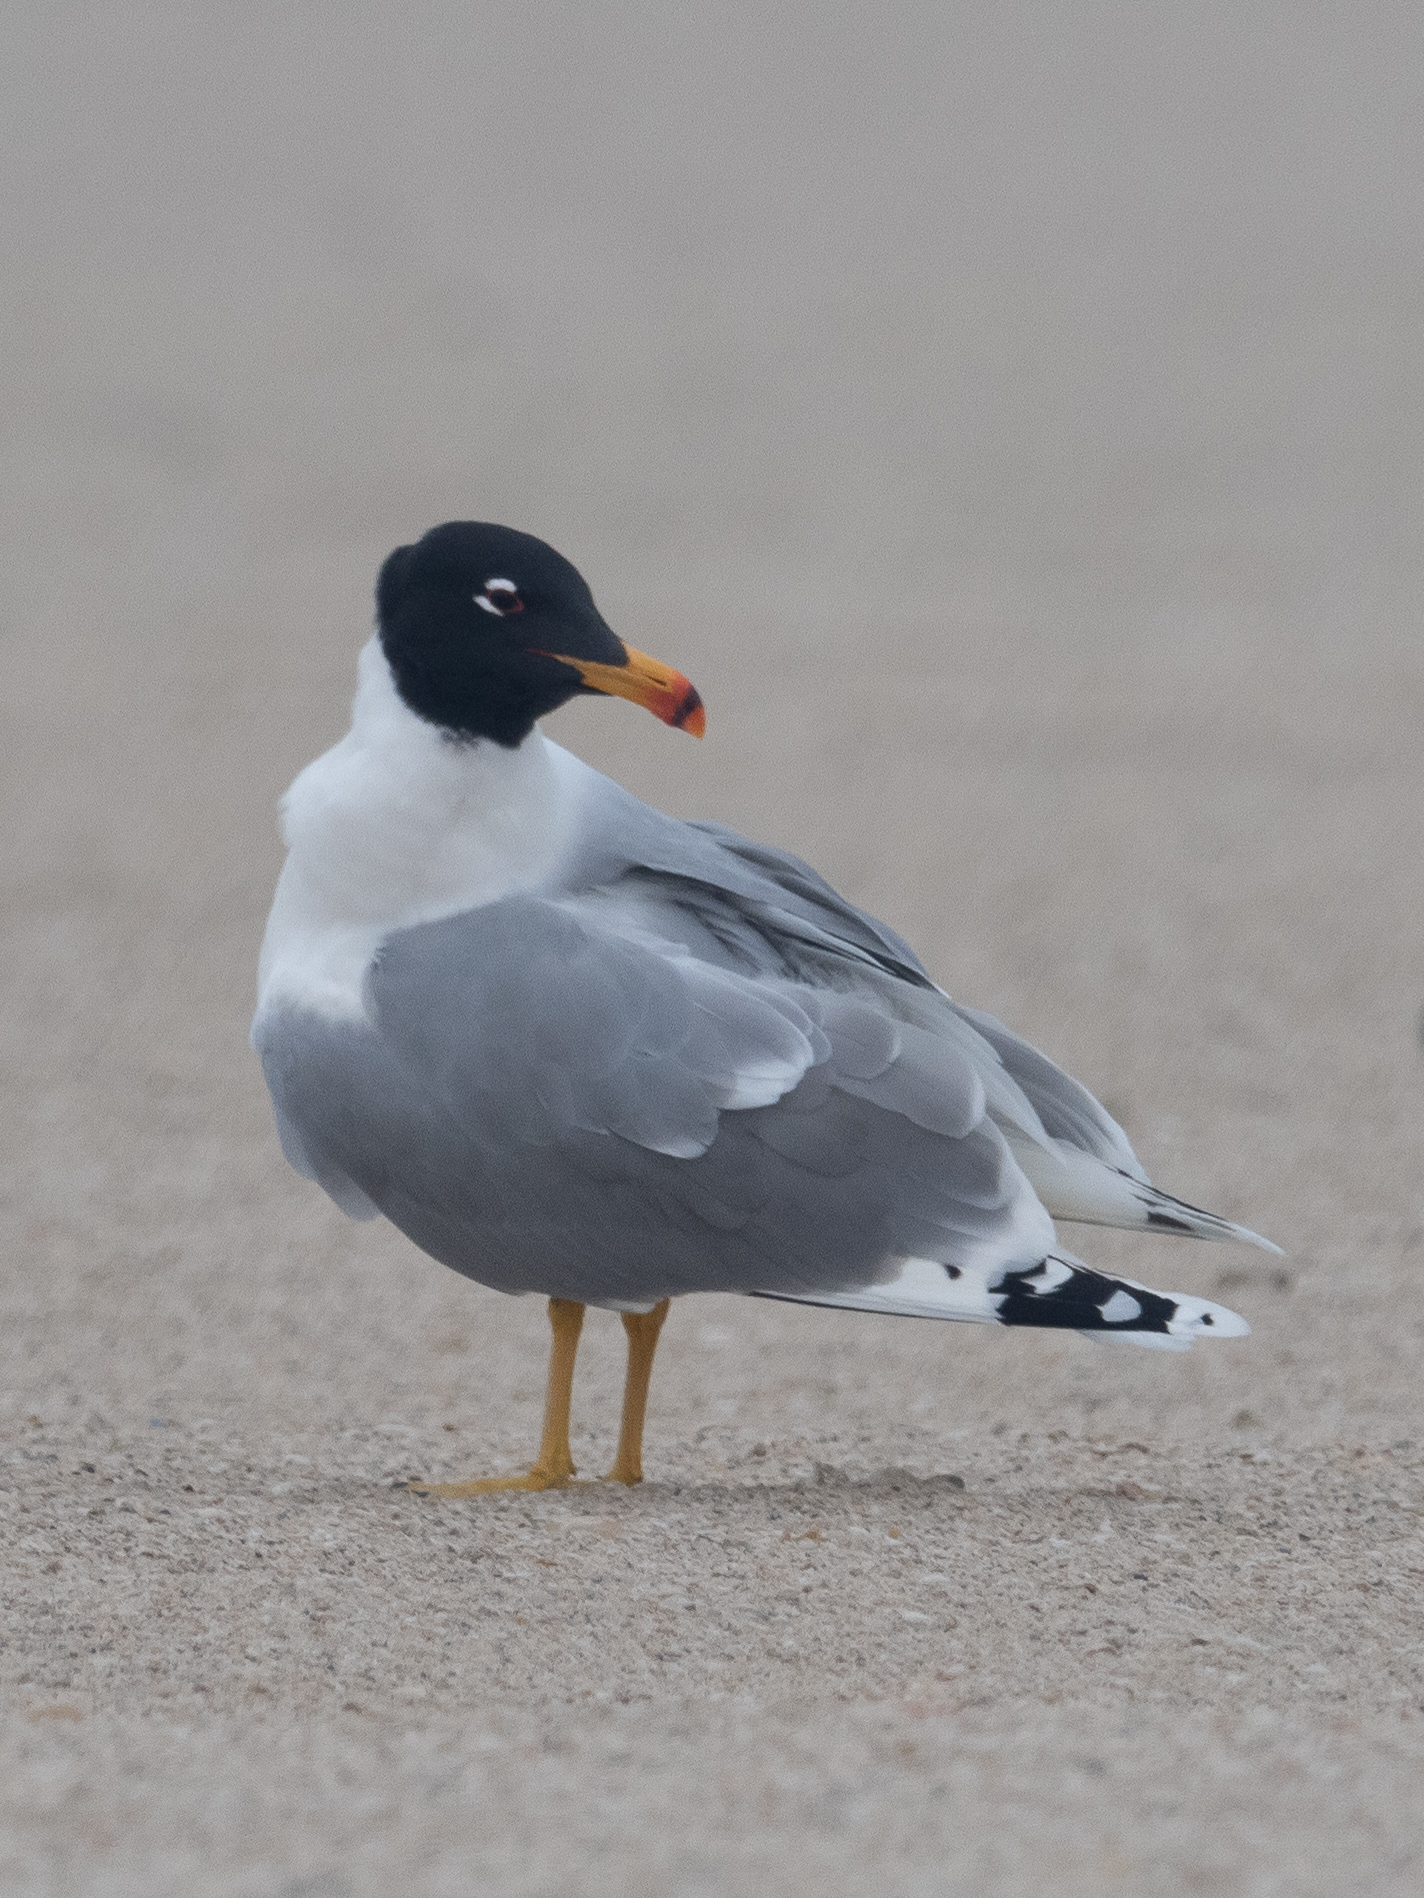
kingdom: Animalia
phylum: Chordata
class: Aves
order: Charadriiformes
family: Laridae
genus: Ichthyaetus
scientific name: Ichthyaetus ichthyaetus
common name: Pallas's gull
